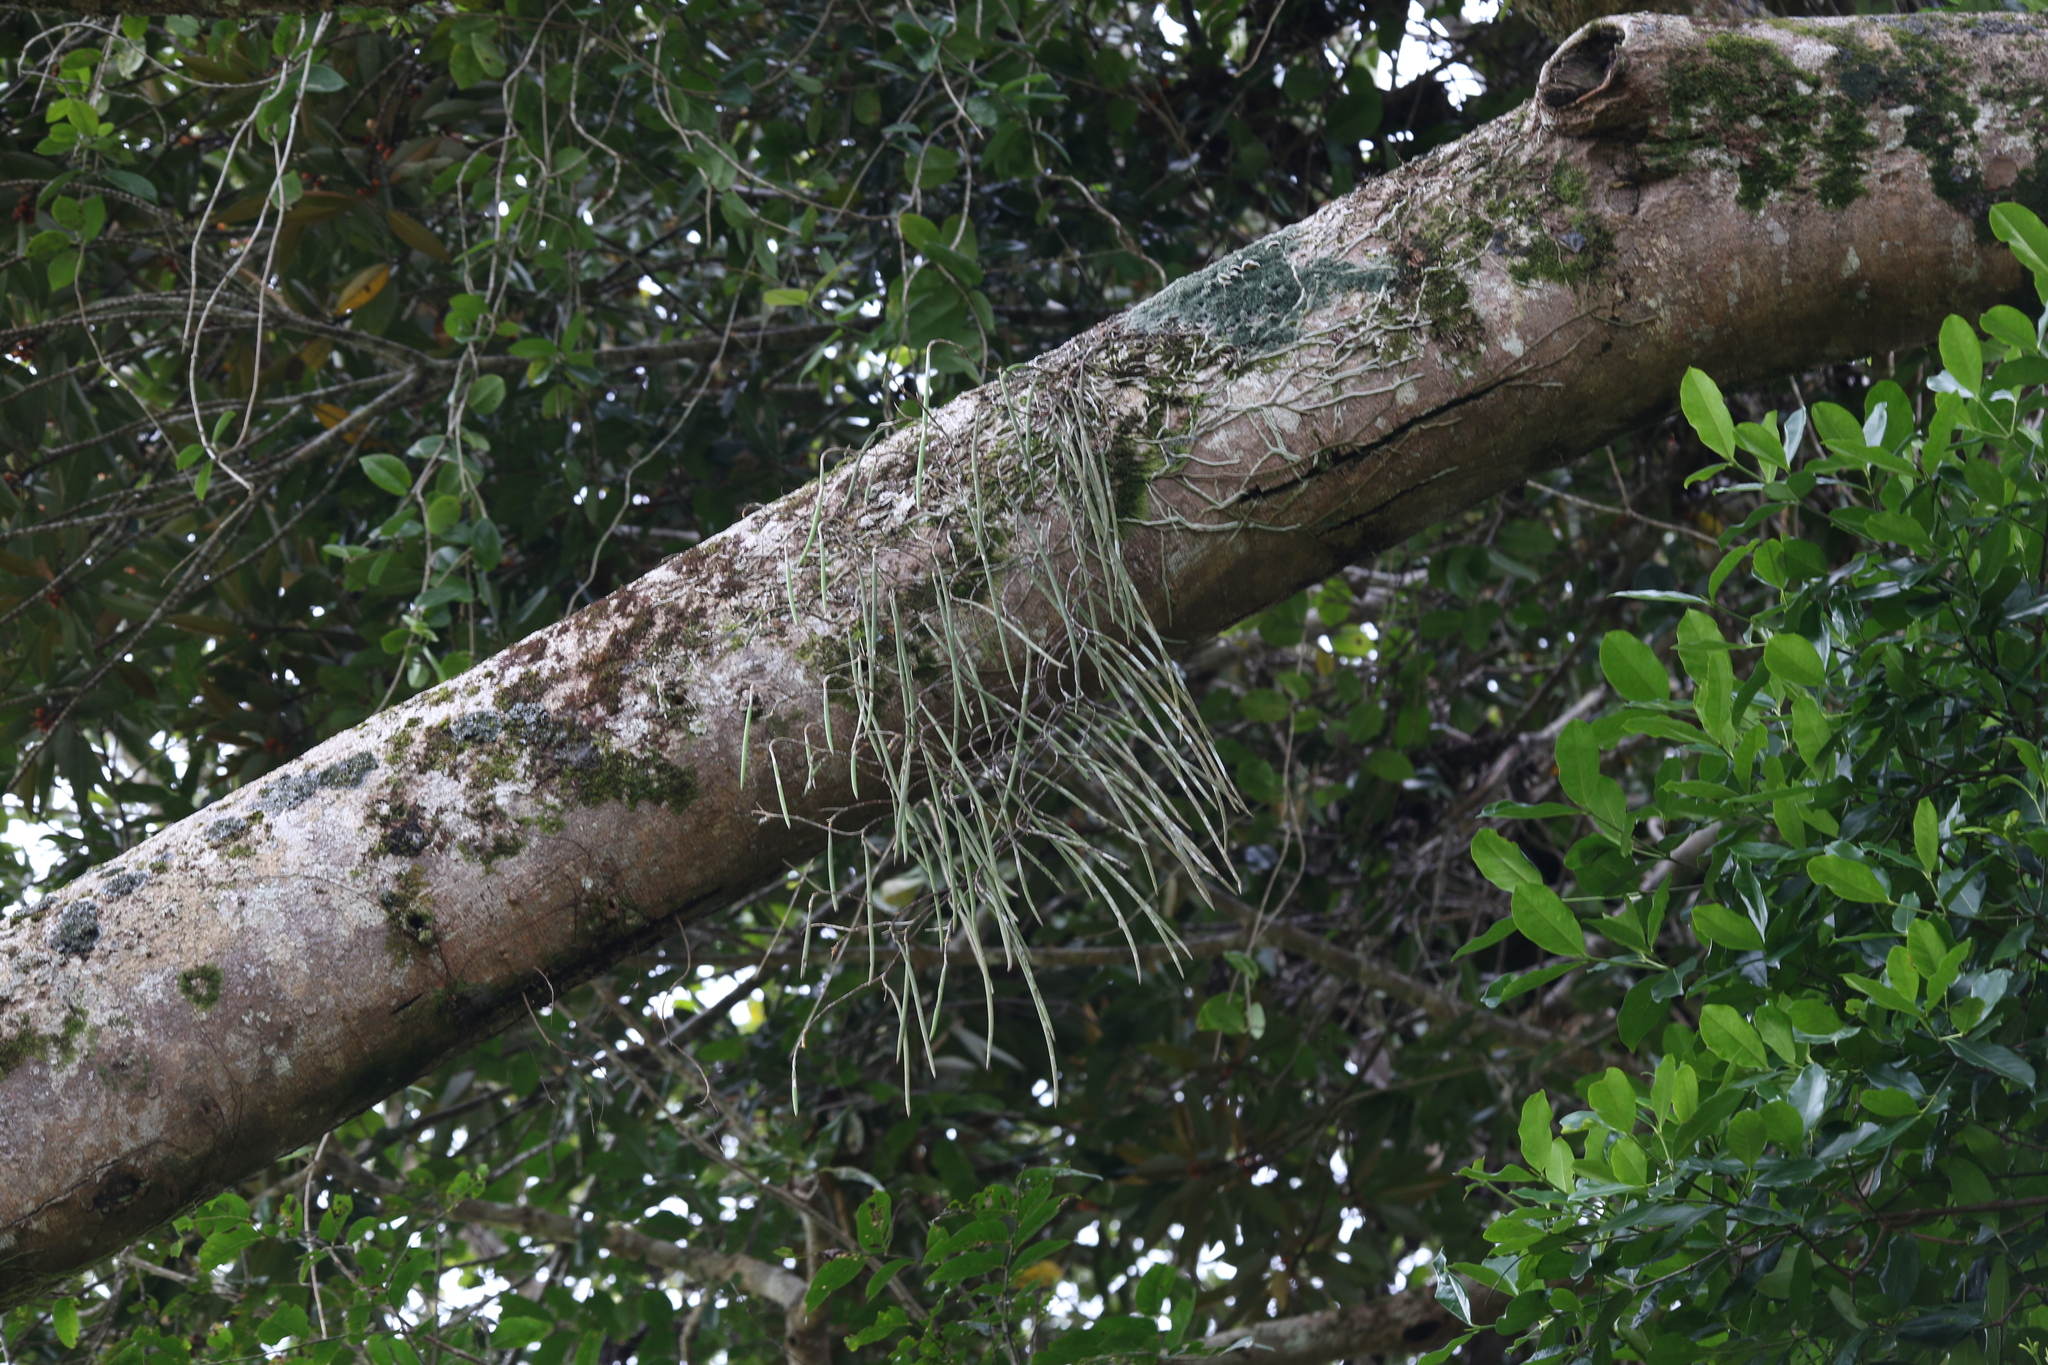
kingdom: Plantae
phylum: Tracheophyta
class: Liliopsida
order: Asparagales
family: Orchidaceae
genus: Dendrobium
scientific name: Dendrobium teretifolium
